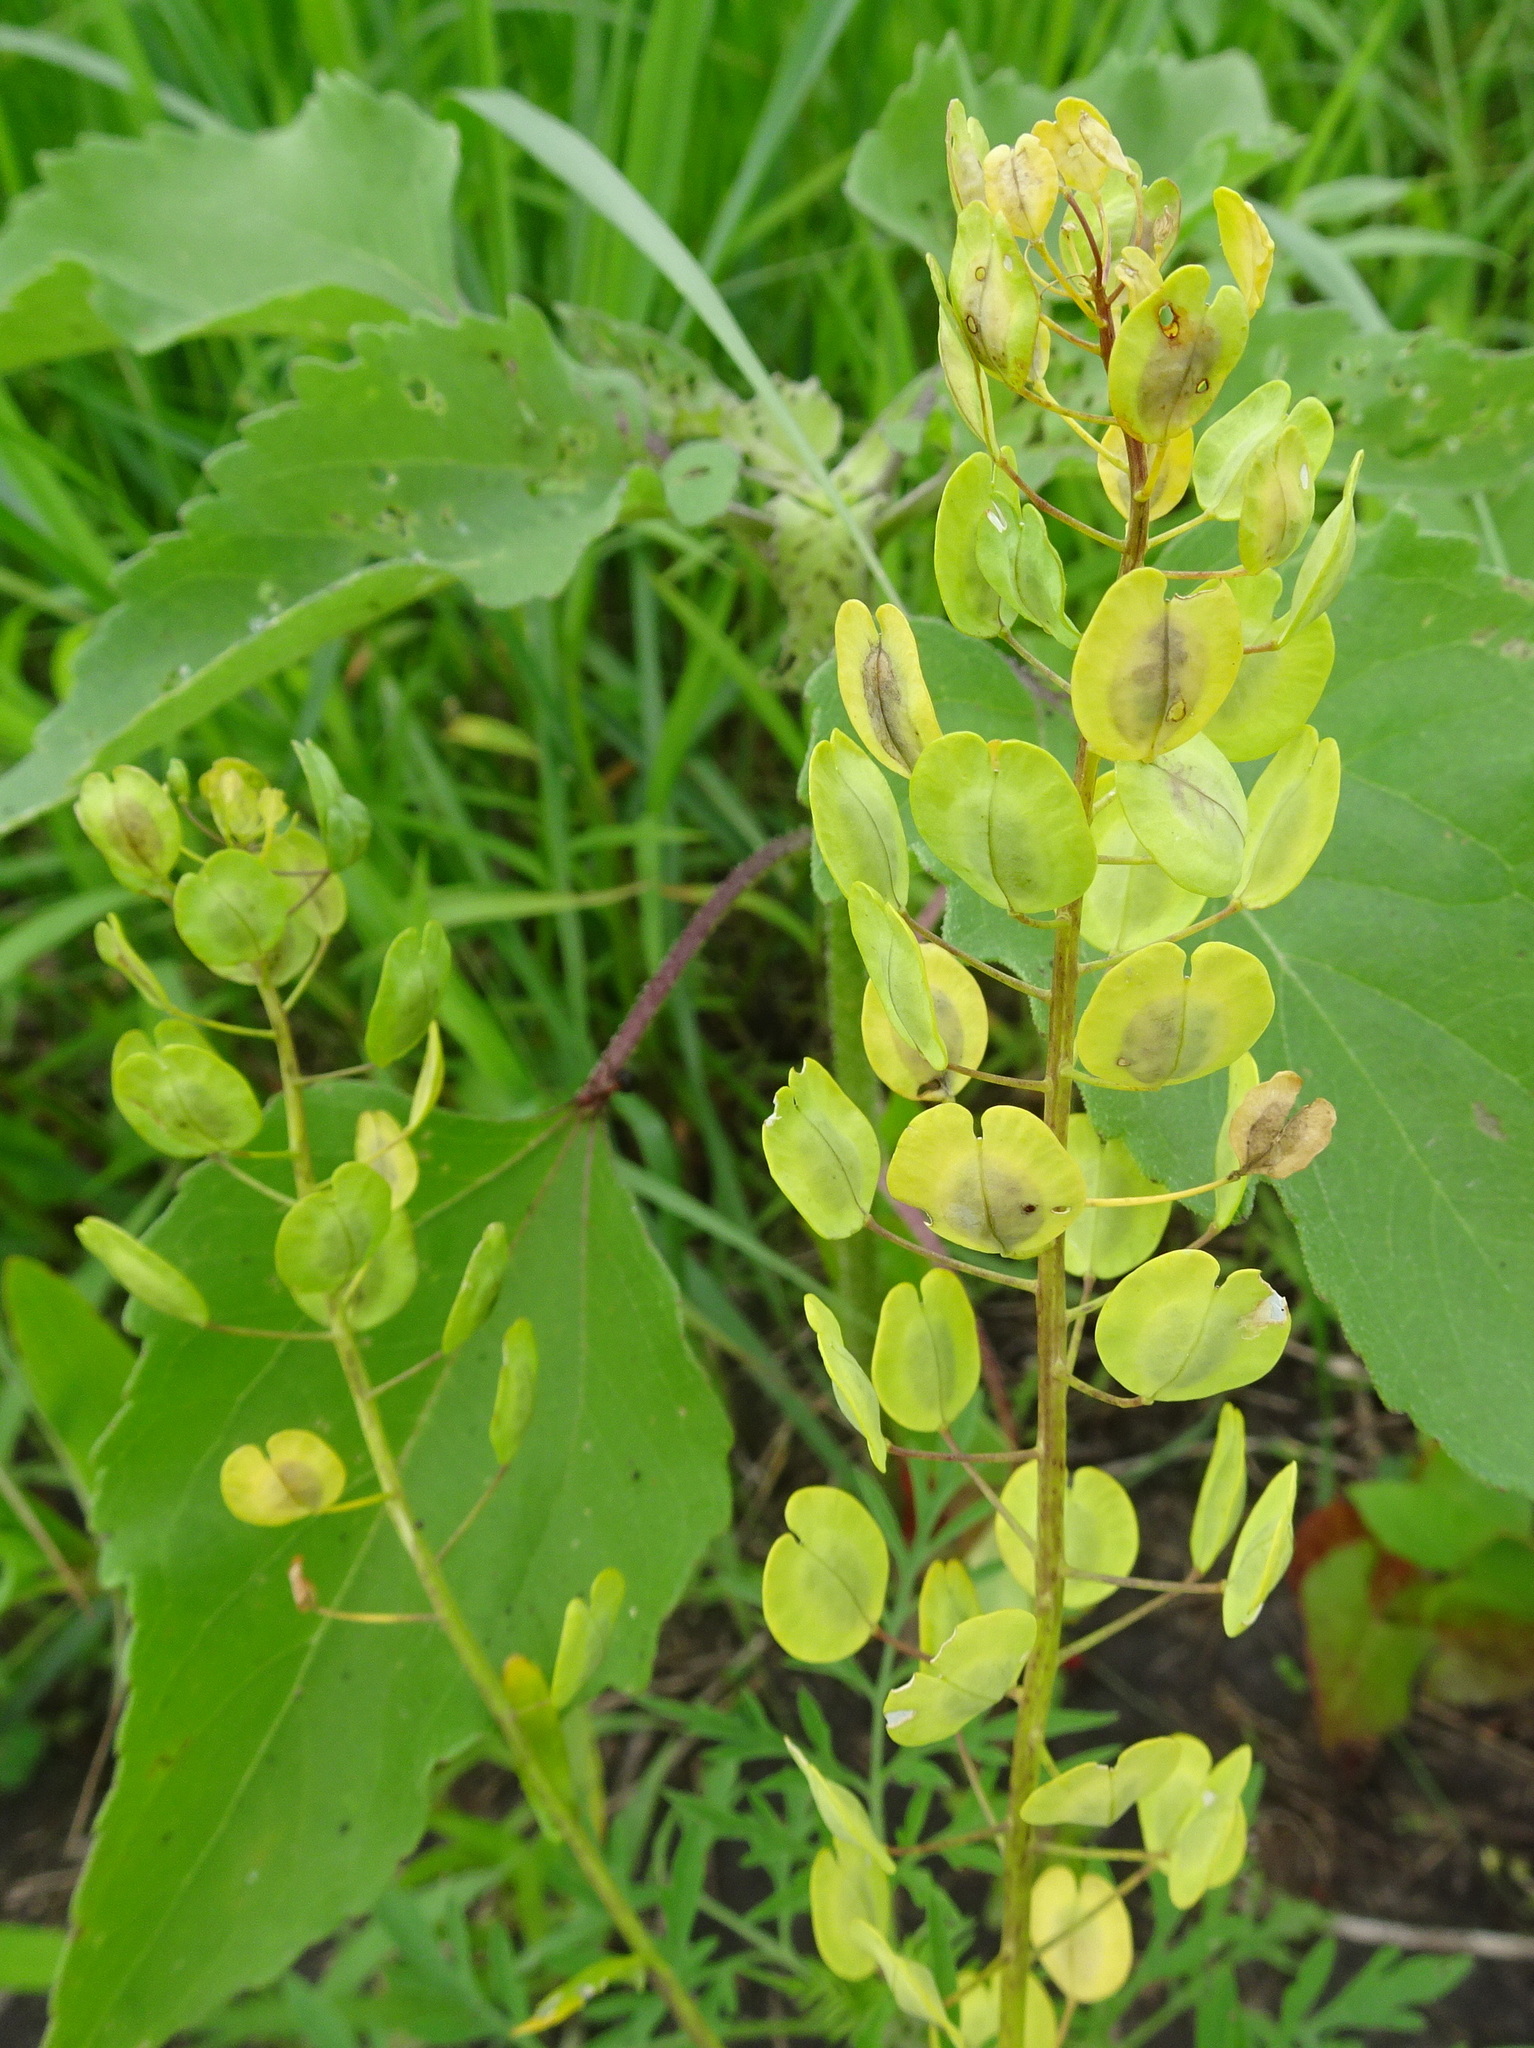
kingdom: Plantae
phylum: Tracheophyta
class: Magnoliopsida
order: Brassicales
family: Brassicaceae
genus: Thlaspi
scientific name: Thlaspi arvense
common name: Field pennycress
